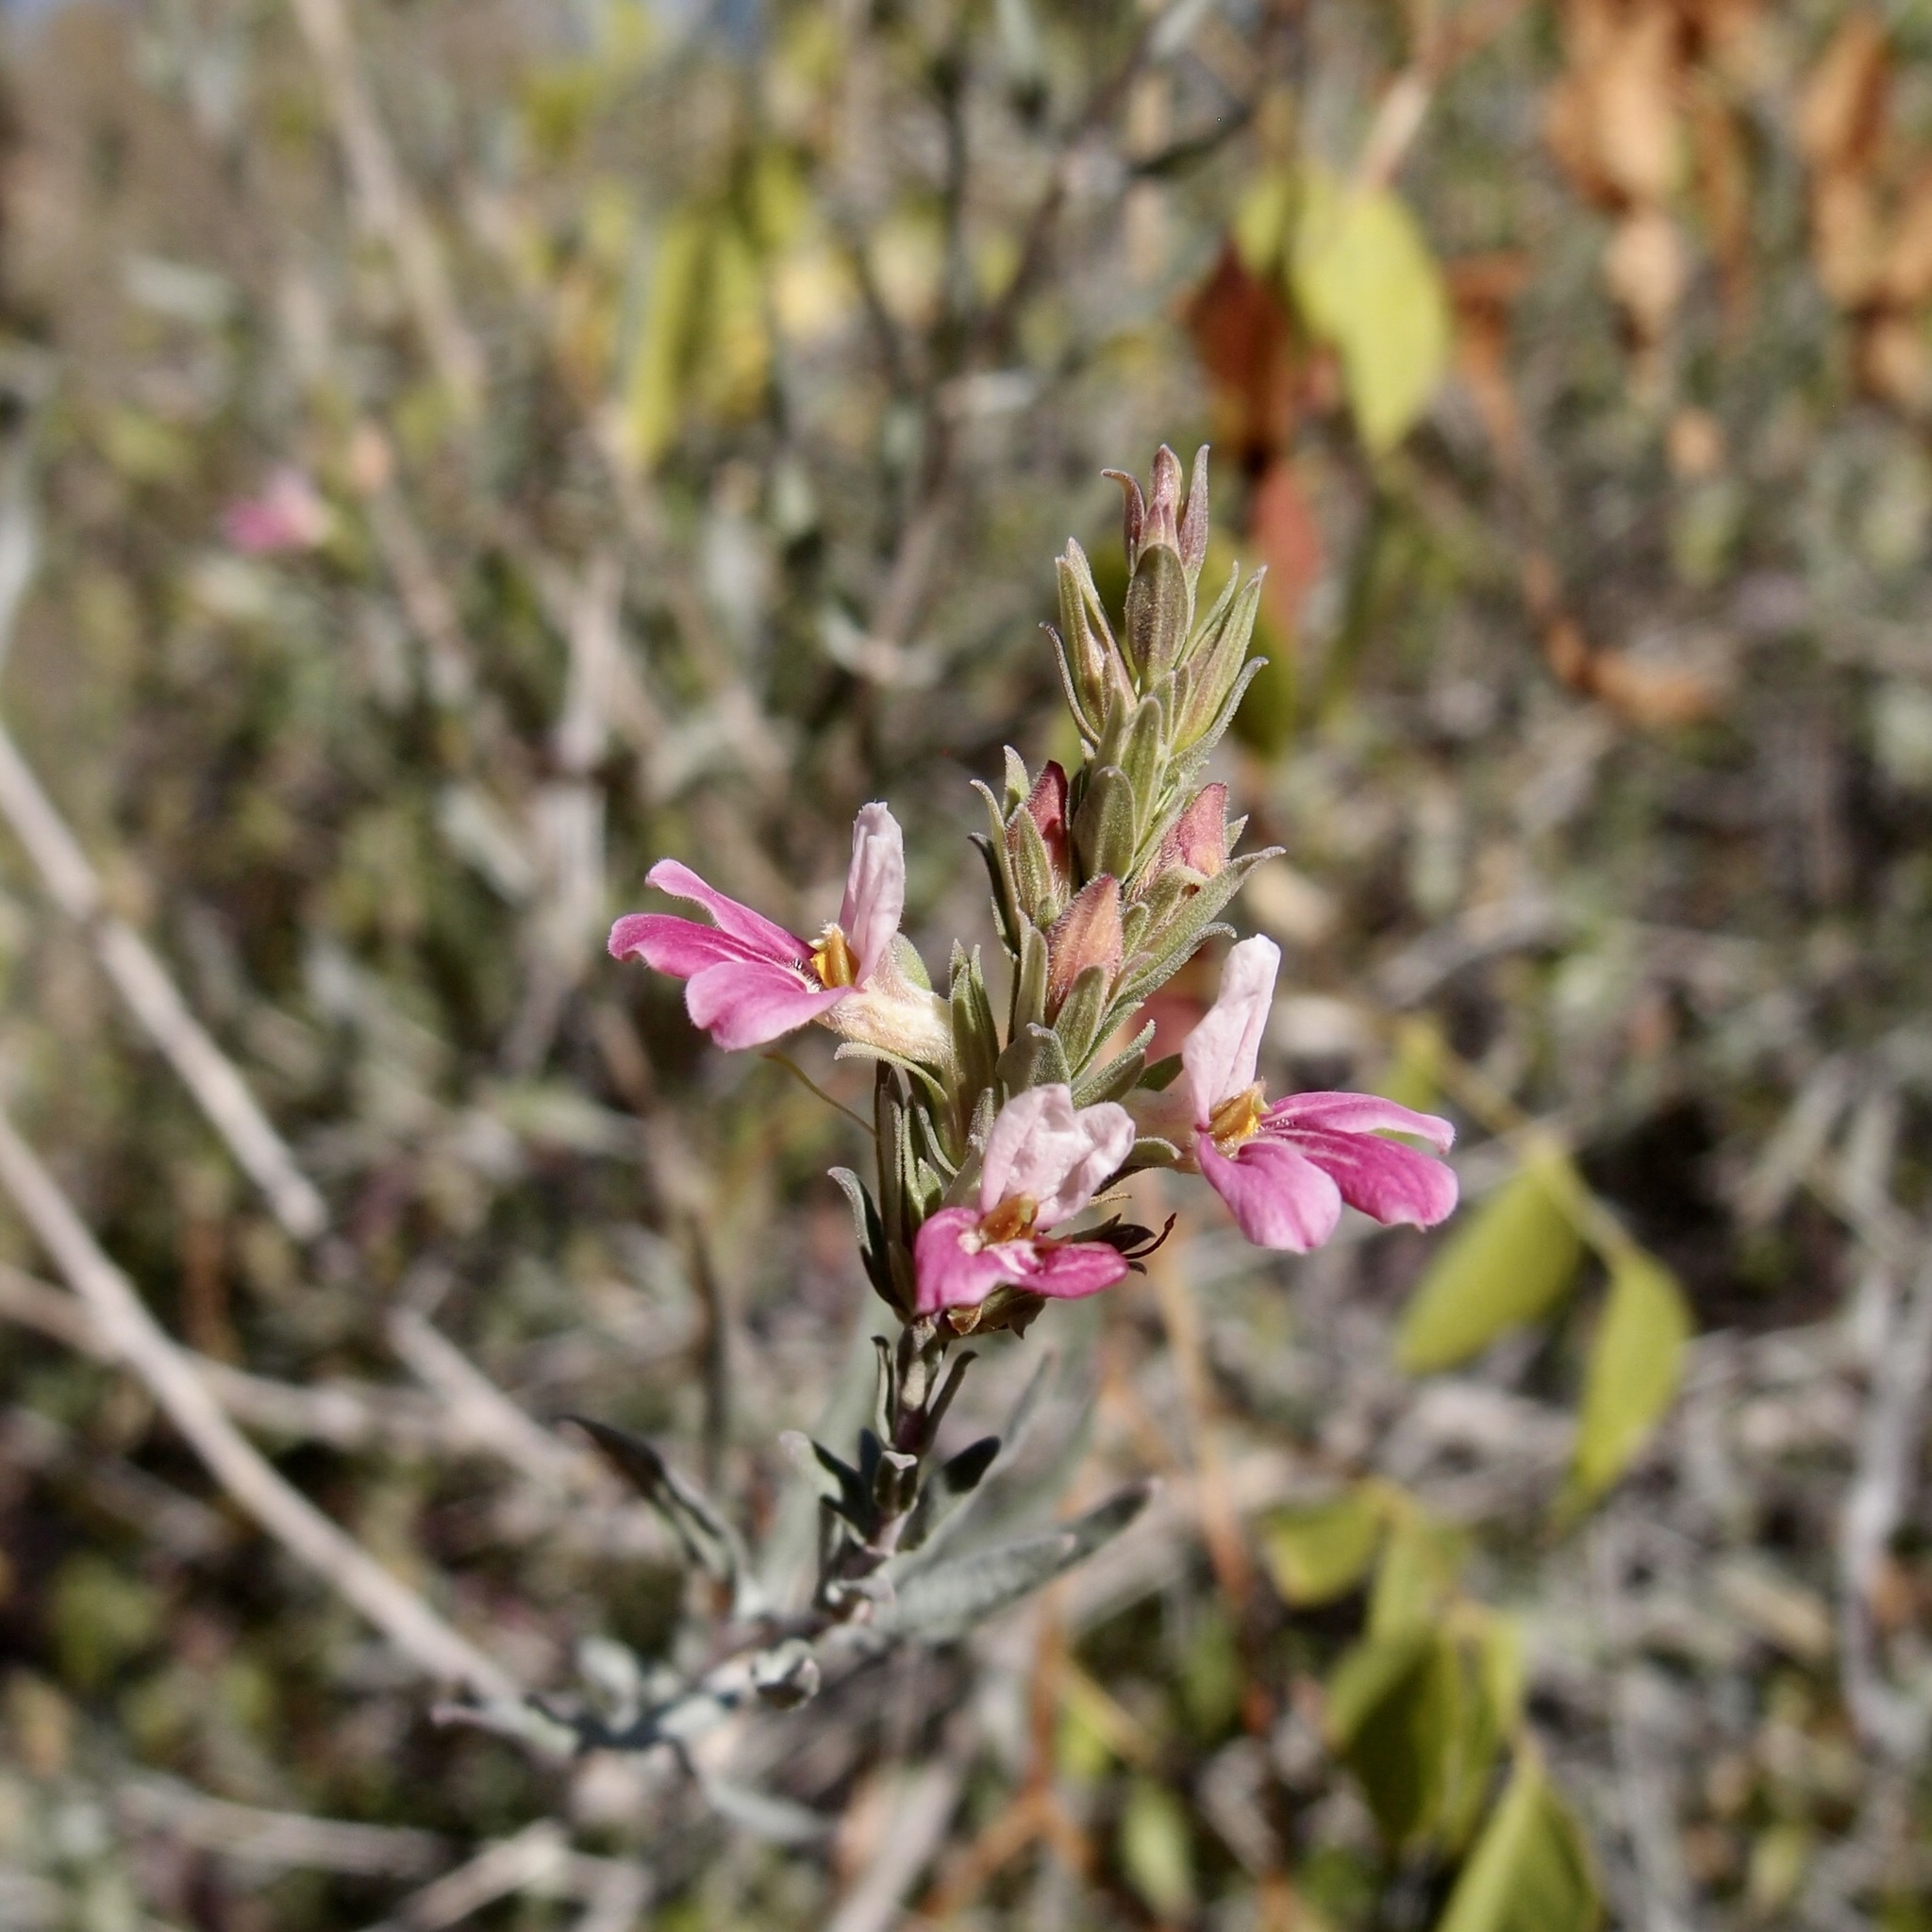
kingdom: Plantae
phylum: Tracheophyta
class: Magnoliopsida
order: Lamiales
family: Acanthaceae
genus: Holographis
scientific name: Holographis virgata
